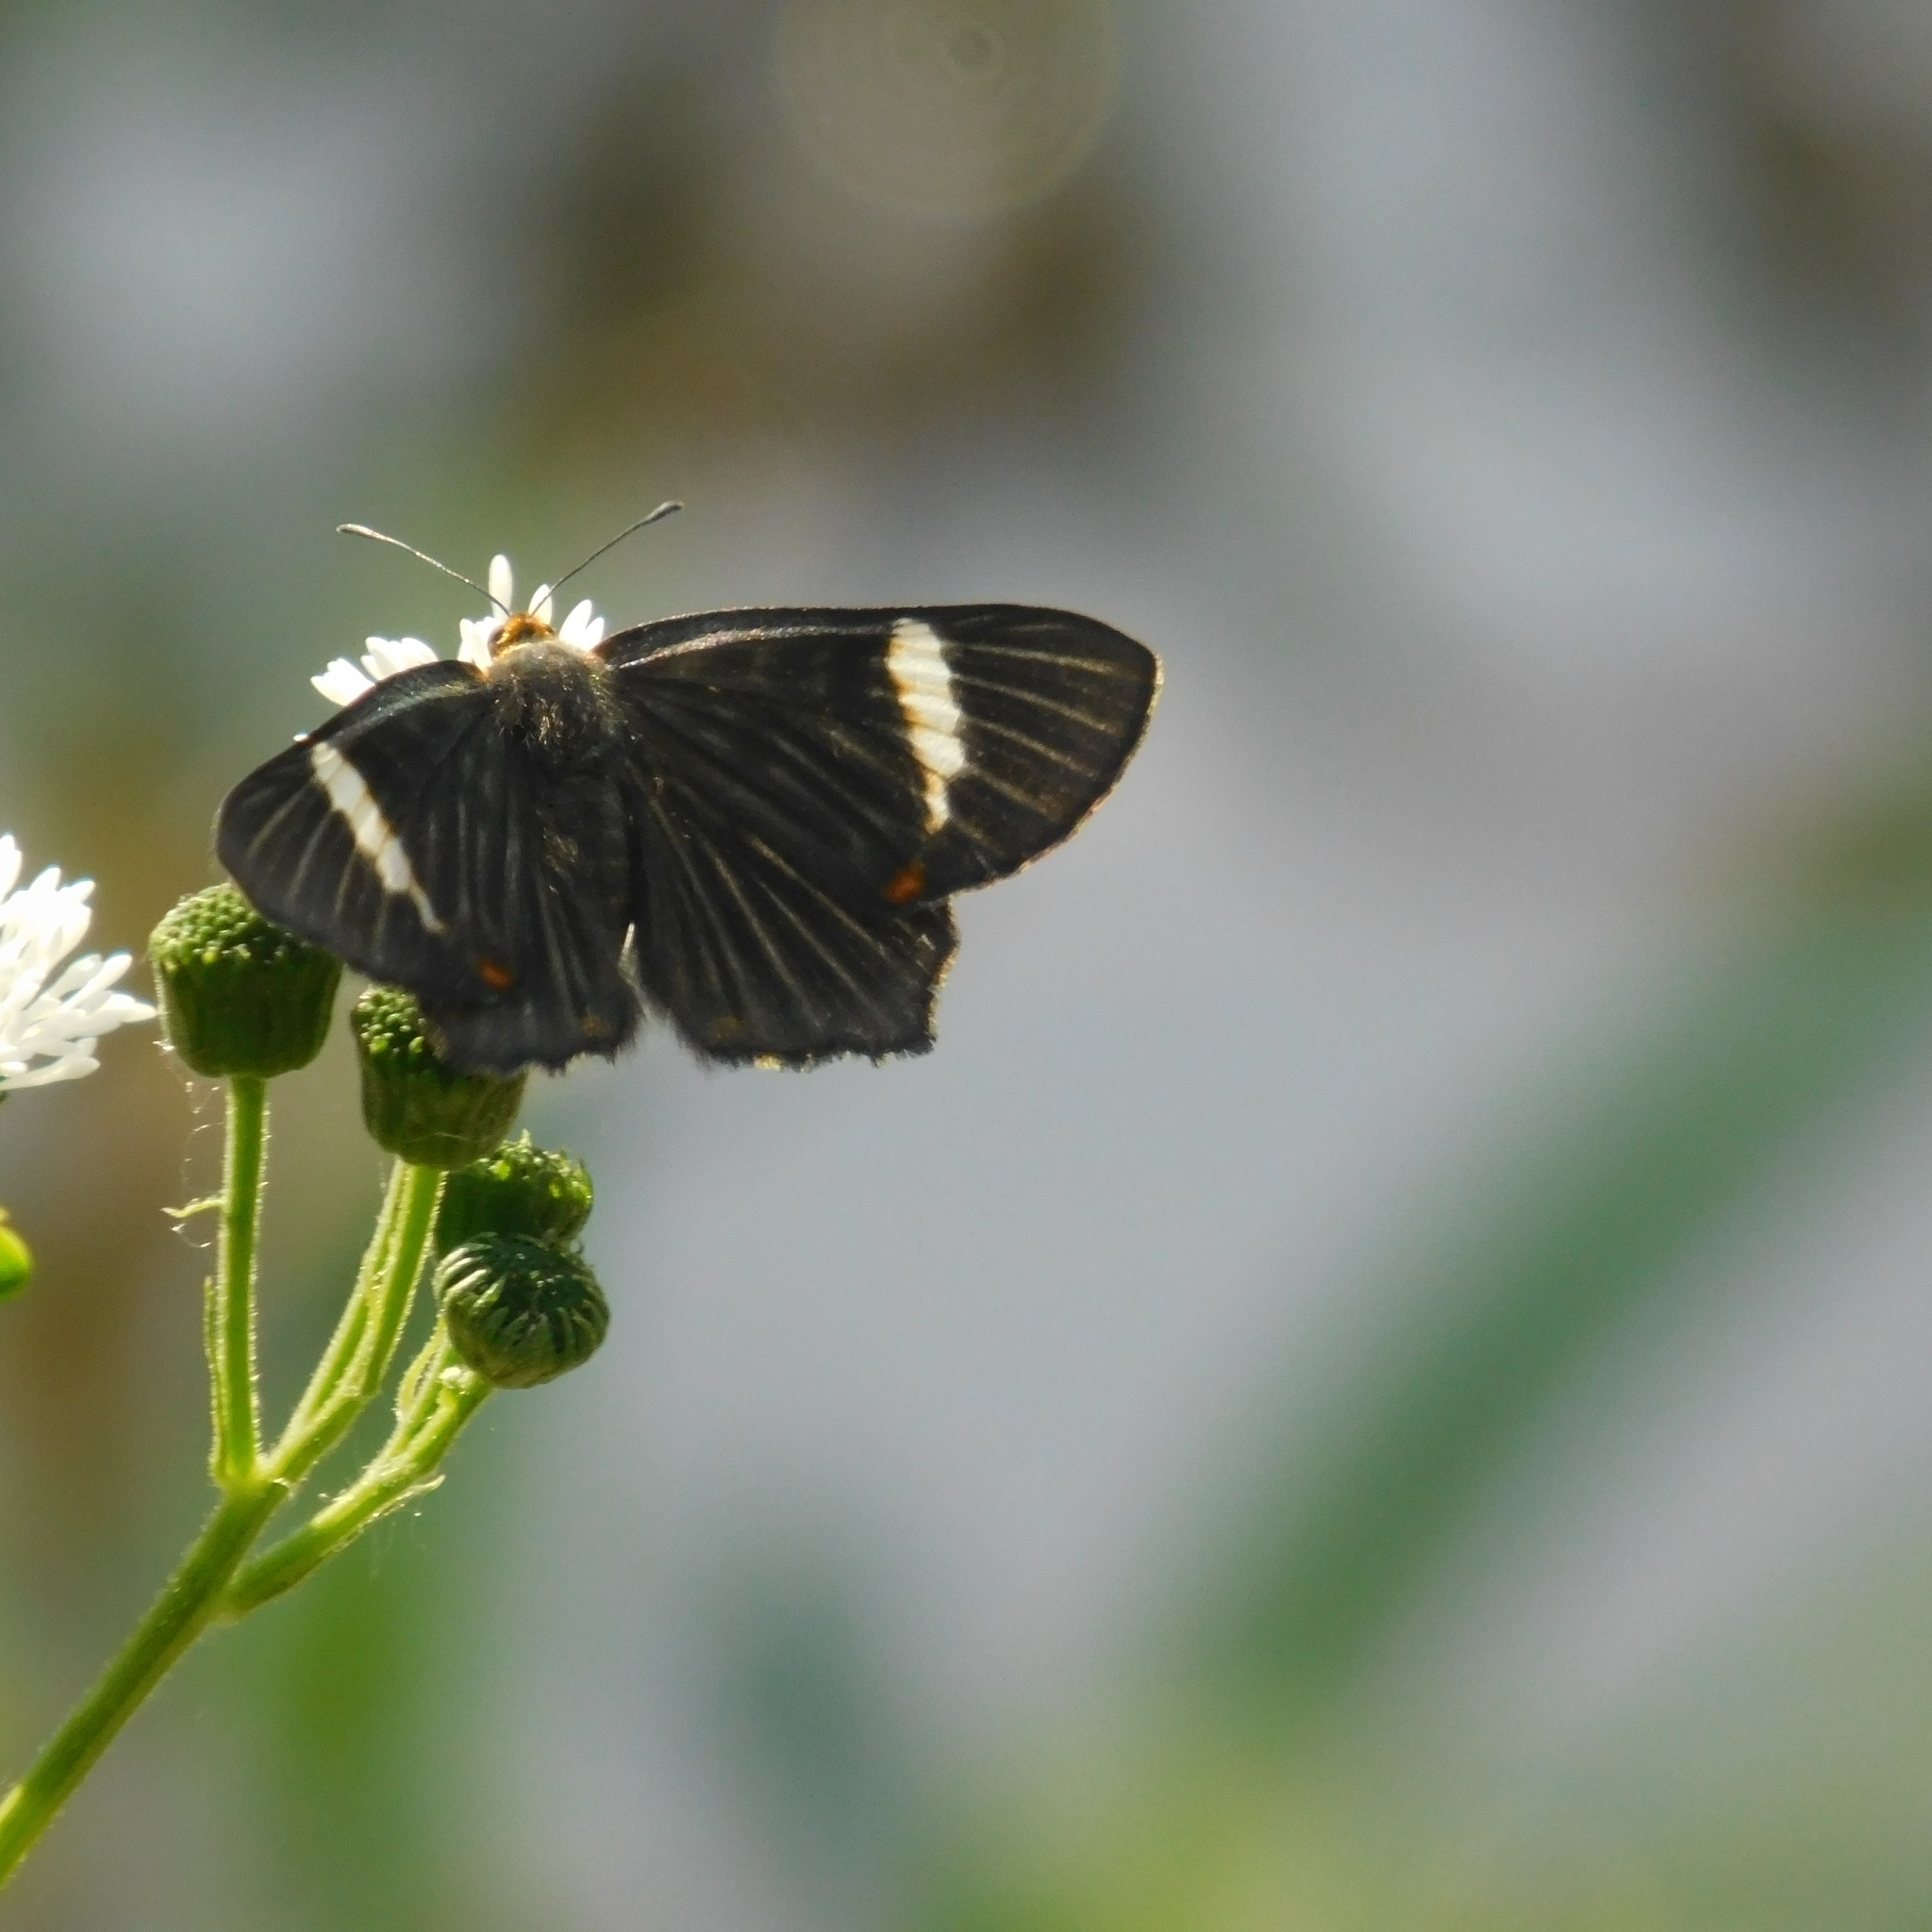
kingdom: Animalia
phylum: Arthropoda
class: Insecta
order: Lepidoptera
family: Riodinidae
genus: Riodina
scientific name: Riodina lycisca
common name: Lycisca metalmark
